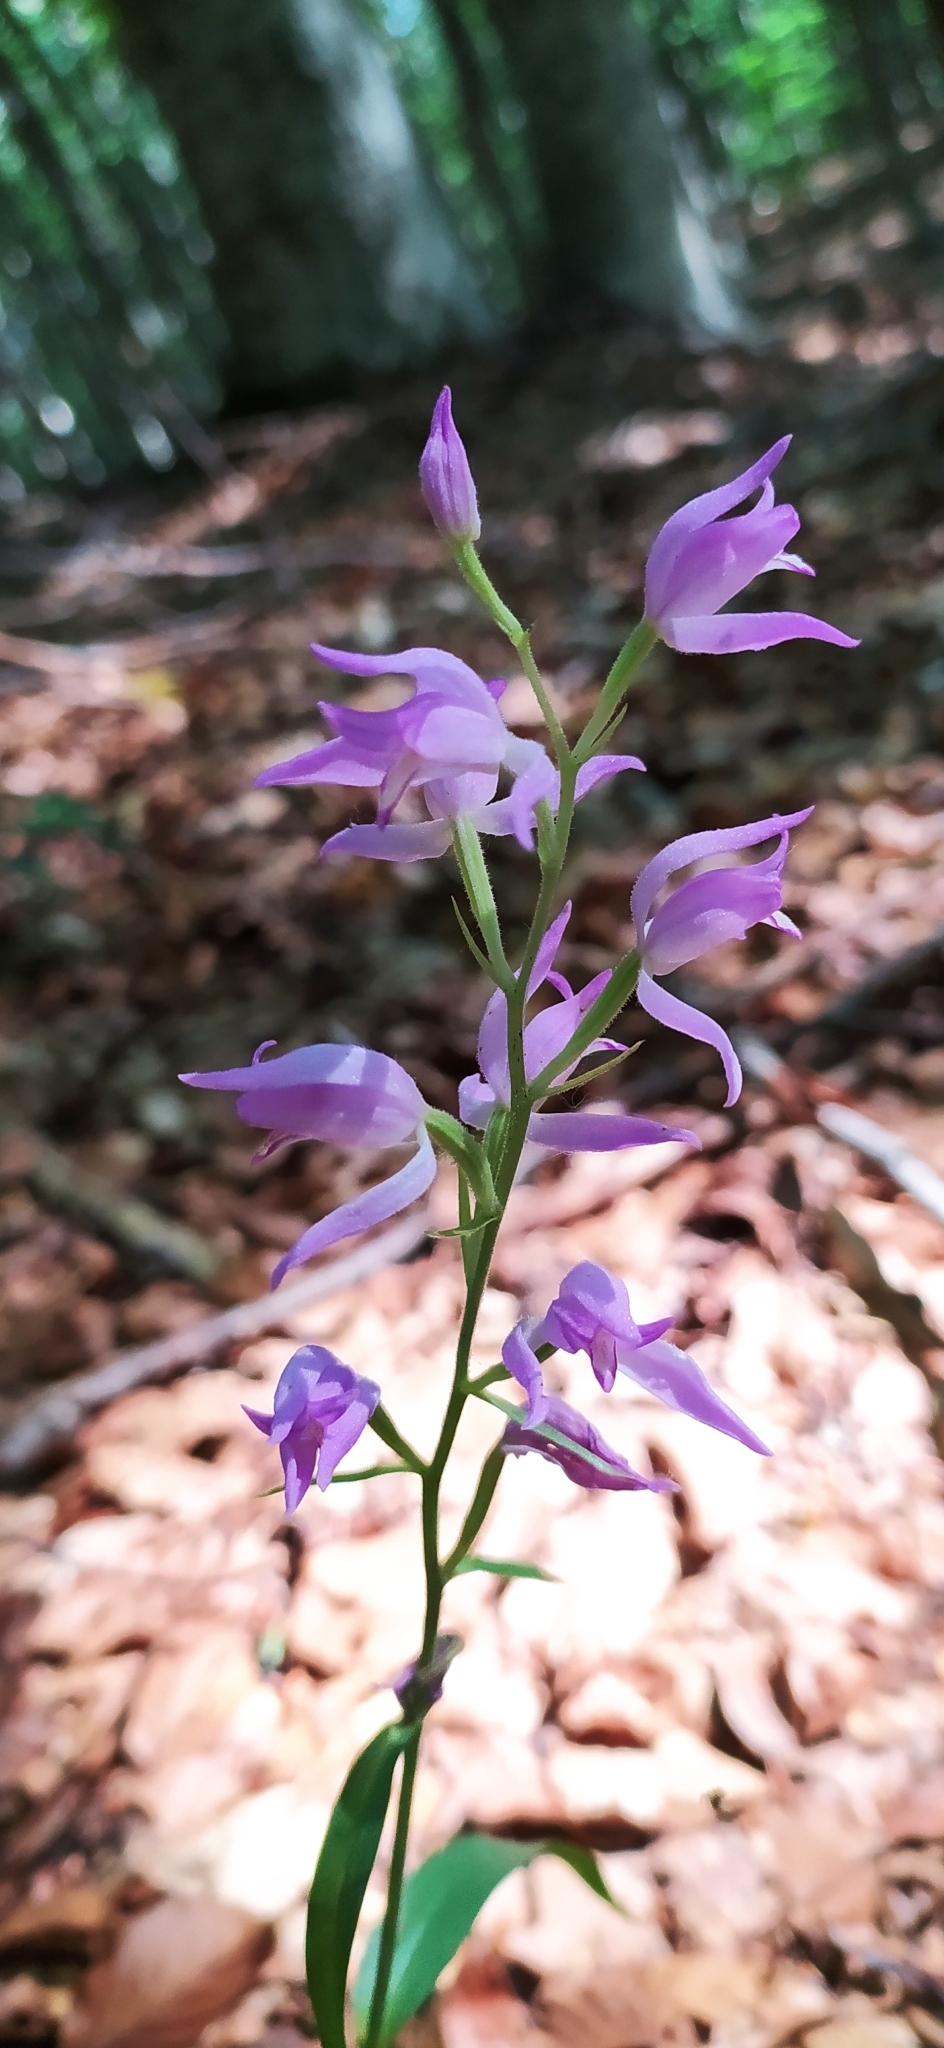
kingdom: Plantae
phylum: Tracheophyta
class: Liliopsida
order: Asparagales
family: Orchidaceae
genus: Cephalanthera
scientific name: Cephalanthera rubra
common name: Red helleborine
